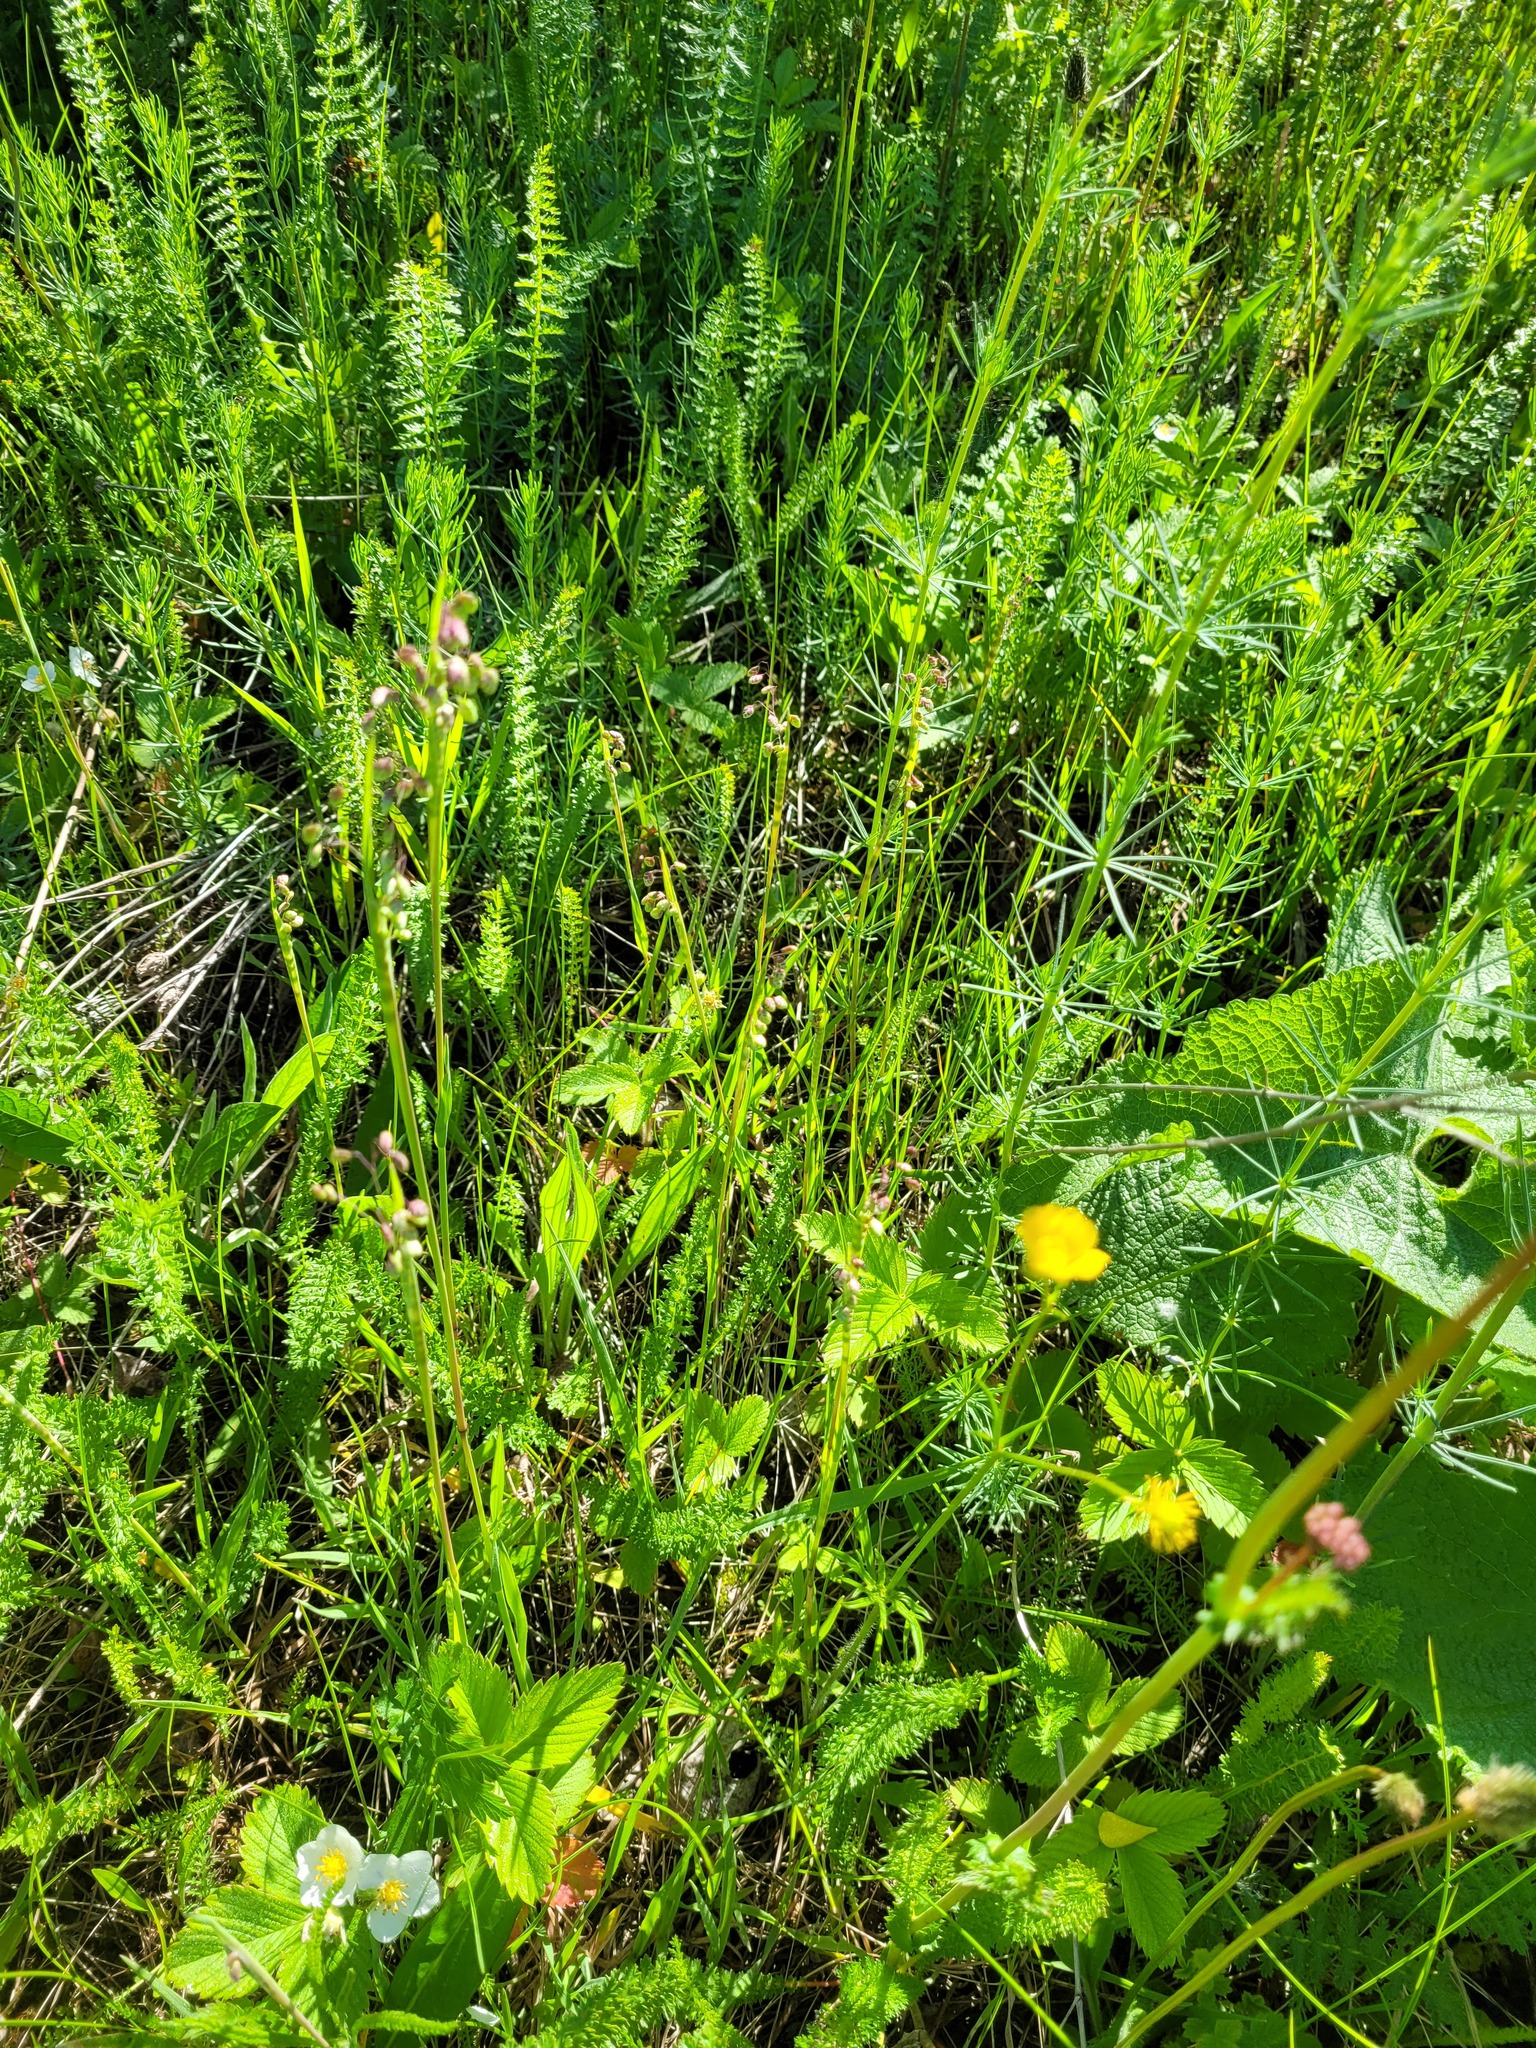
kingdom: Plantae
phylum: Tracheophyta
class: Liliopsida
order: Poales
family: Poaceae
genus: Briza
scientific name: Briza media
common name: Quaking grass
